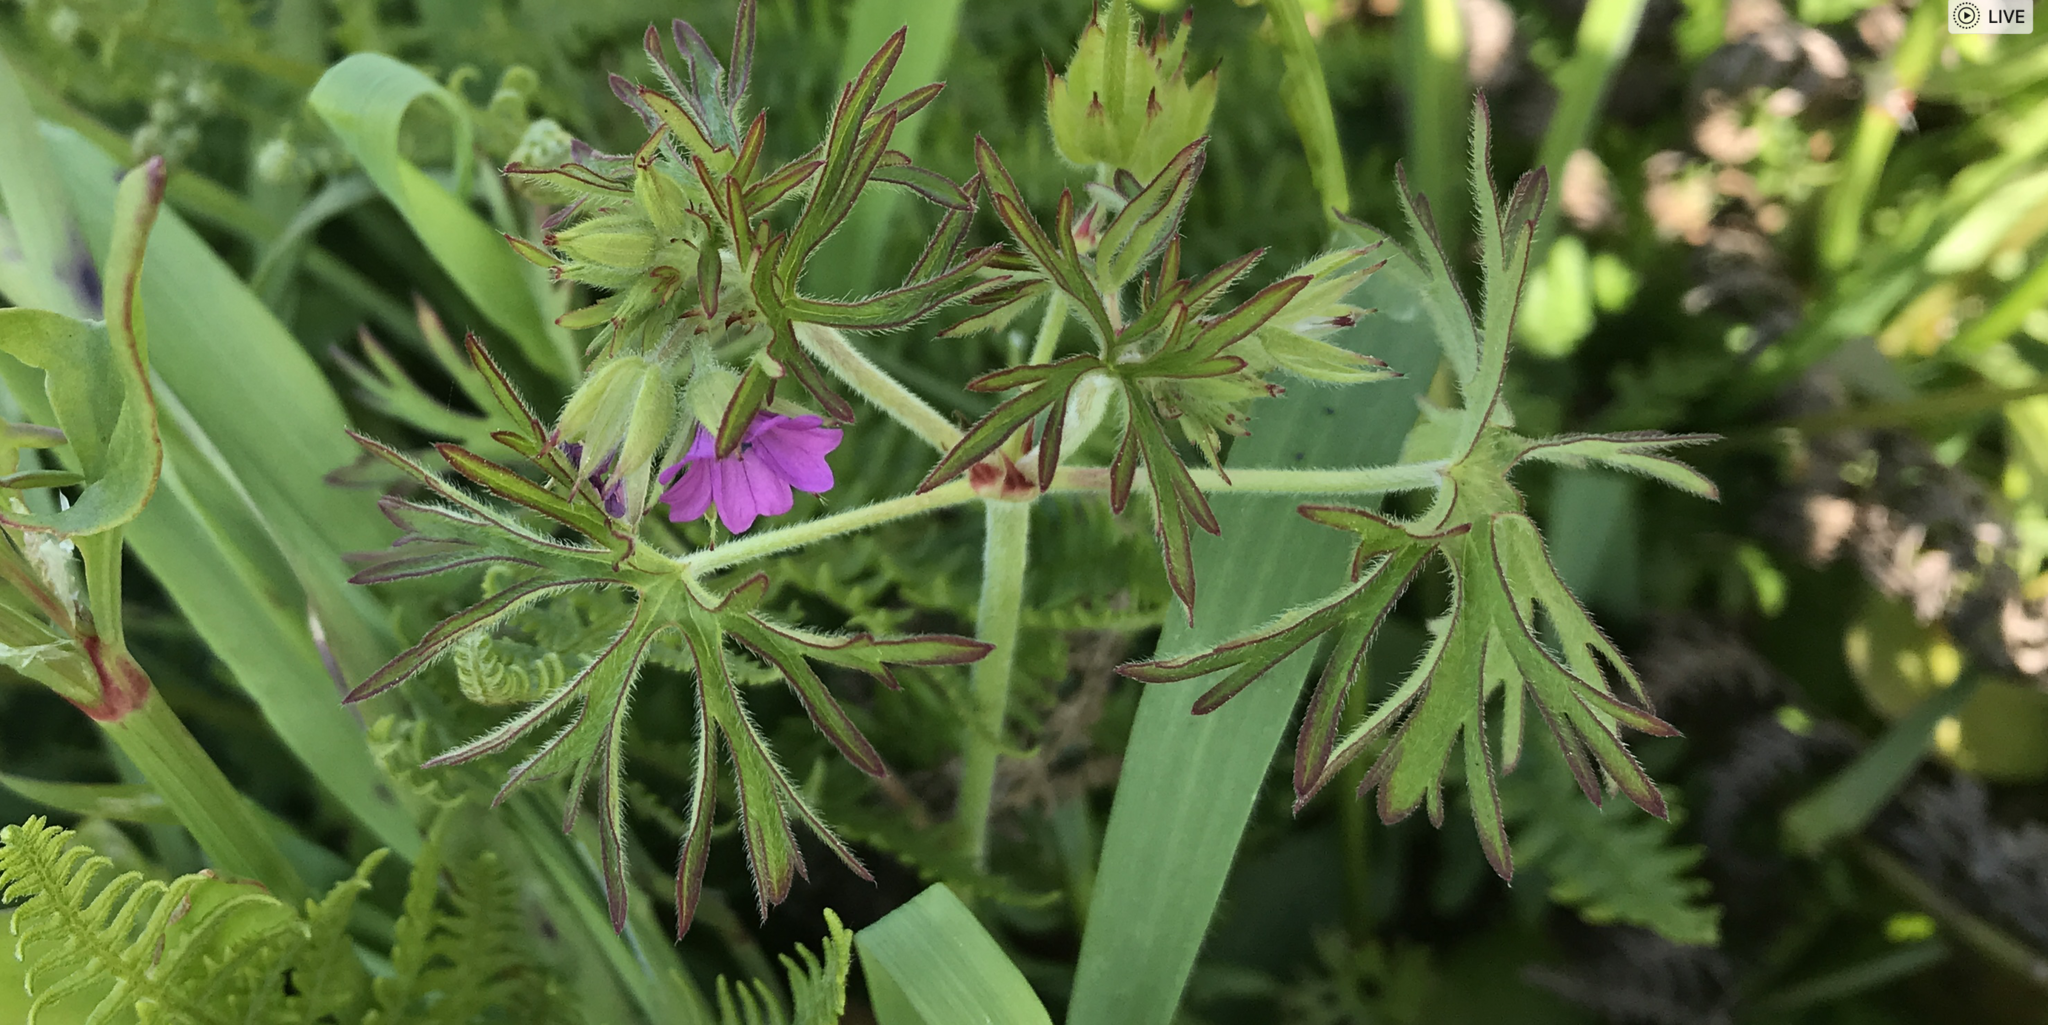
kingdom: Plantae
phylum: Tracheophyta
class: Magnoliopsida
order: Geraniales
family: Geraniaceae
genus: Geranium
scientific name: Geranium dissectum
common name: Cut-leaved crane's-bill
